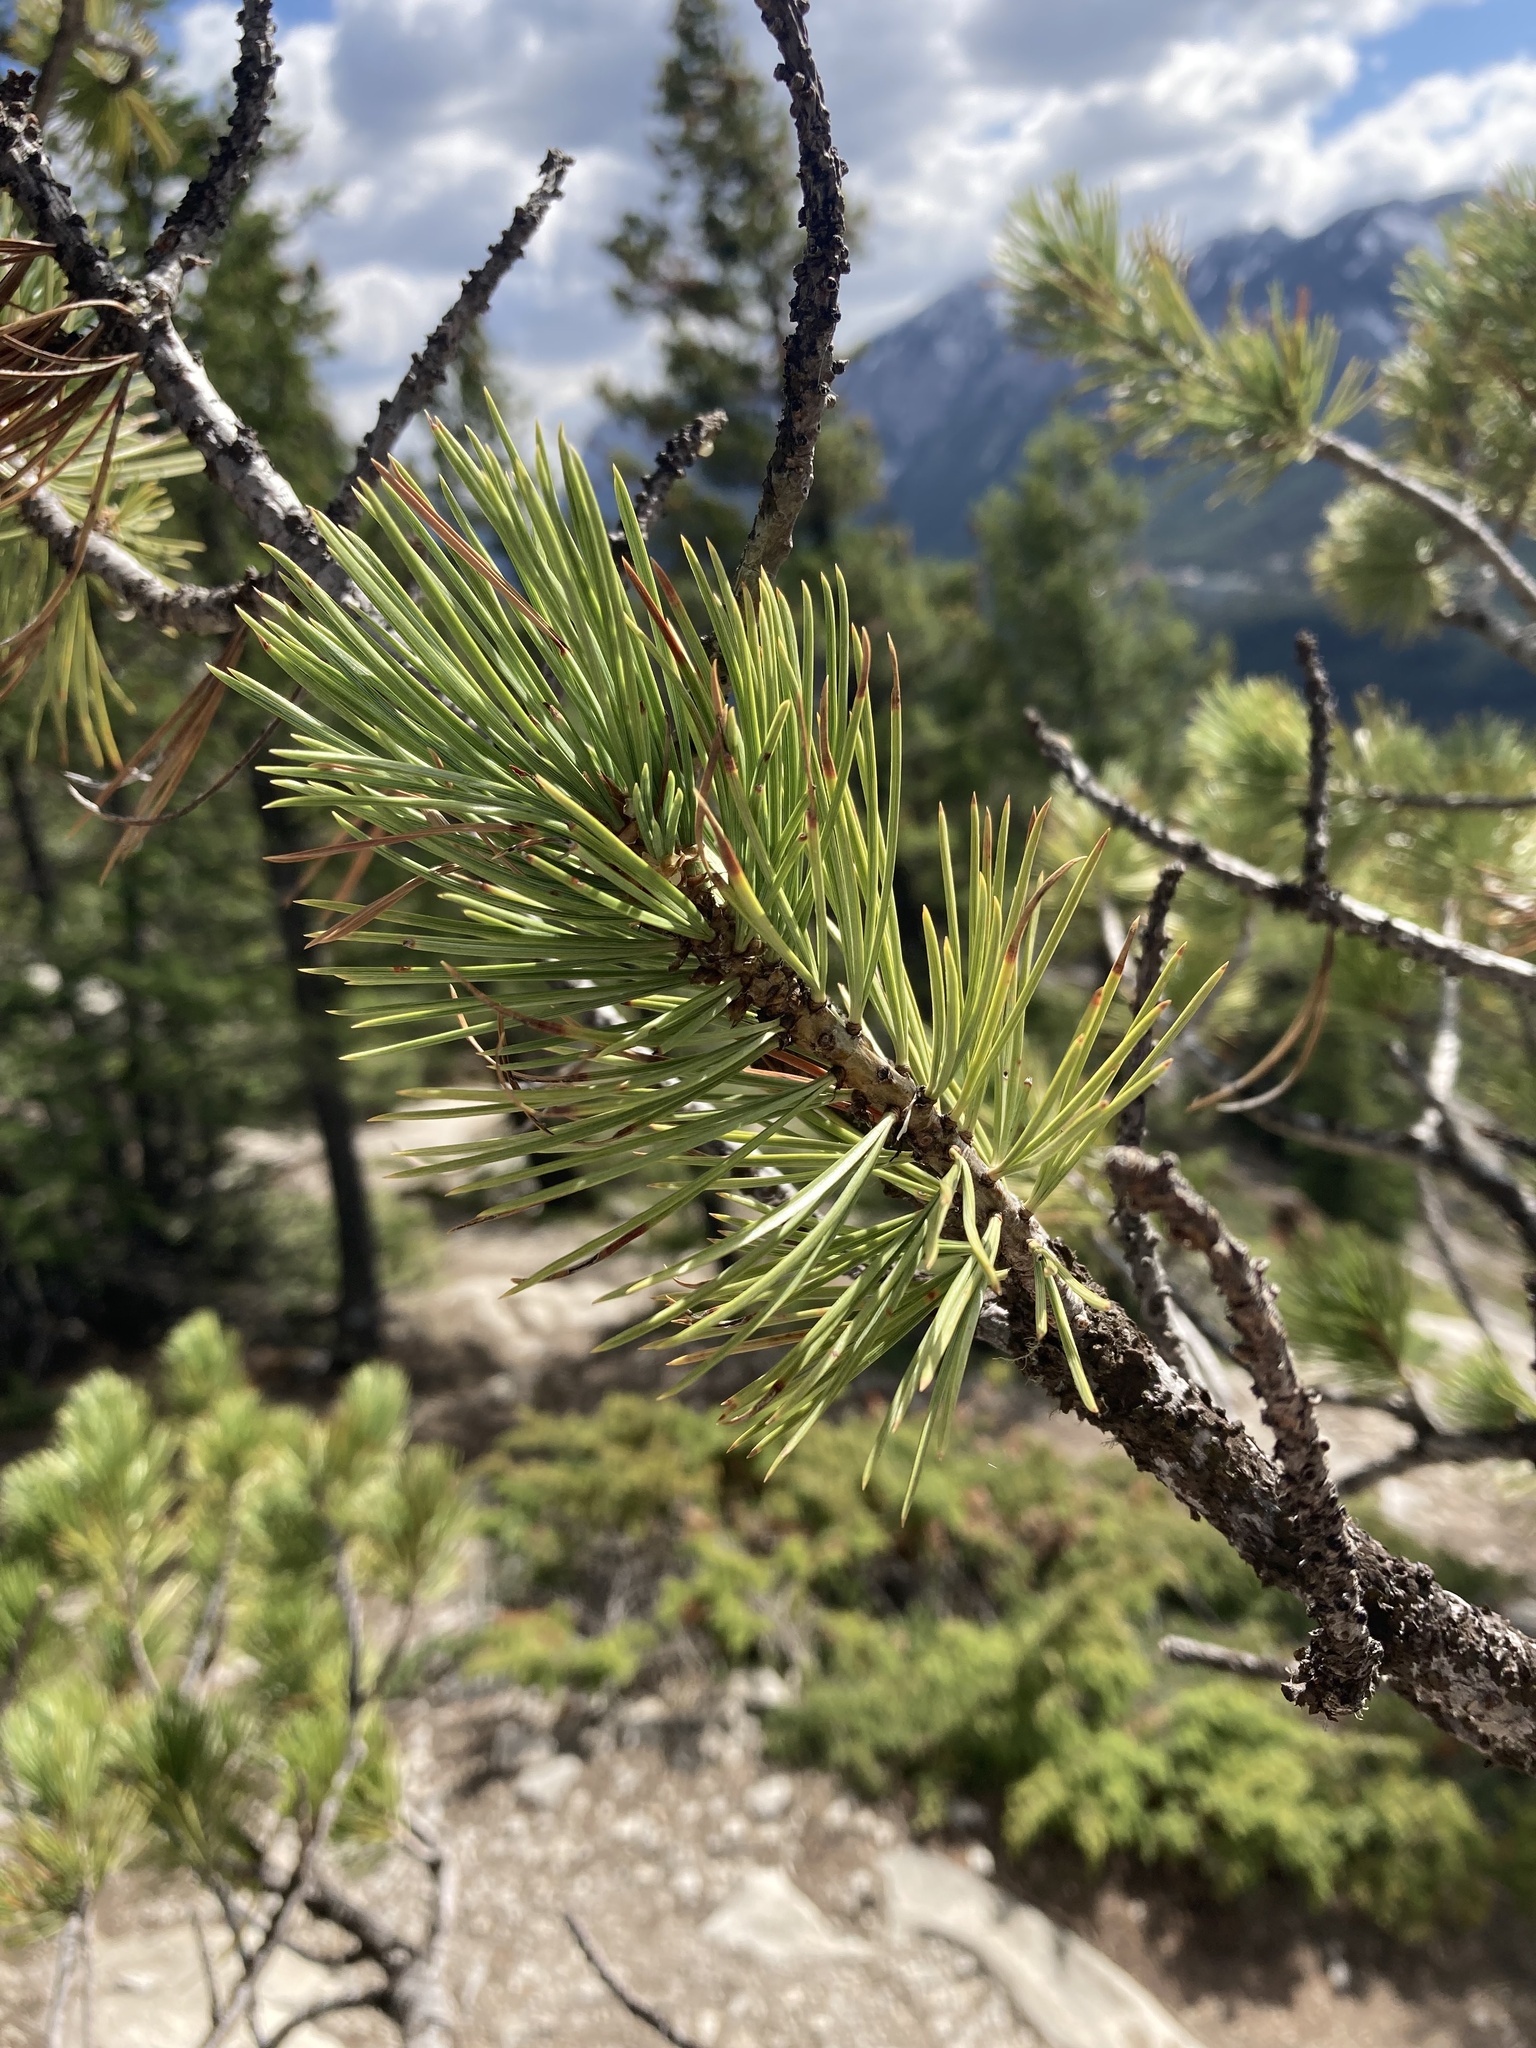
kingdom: Plantae
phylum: Tracheophyta
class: Pinopsida
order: Pinales
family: Pinaceae
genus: Pinus
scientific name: Pinus flexilis
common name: Limber pine
